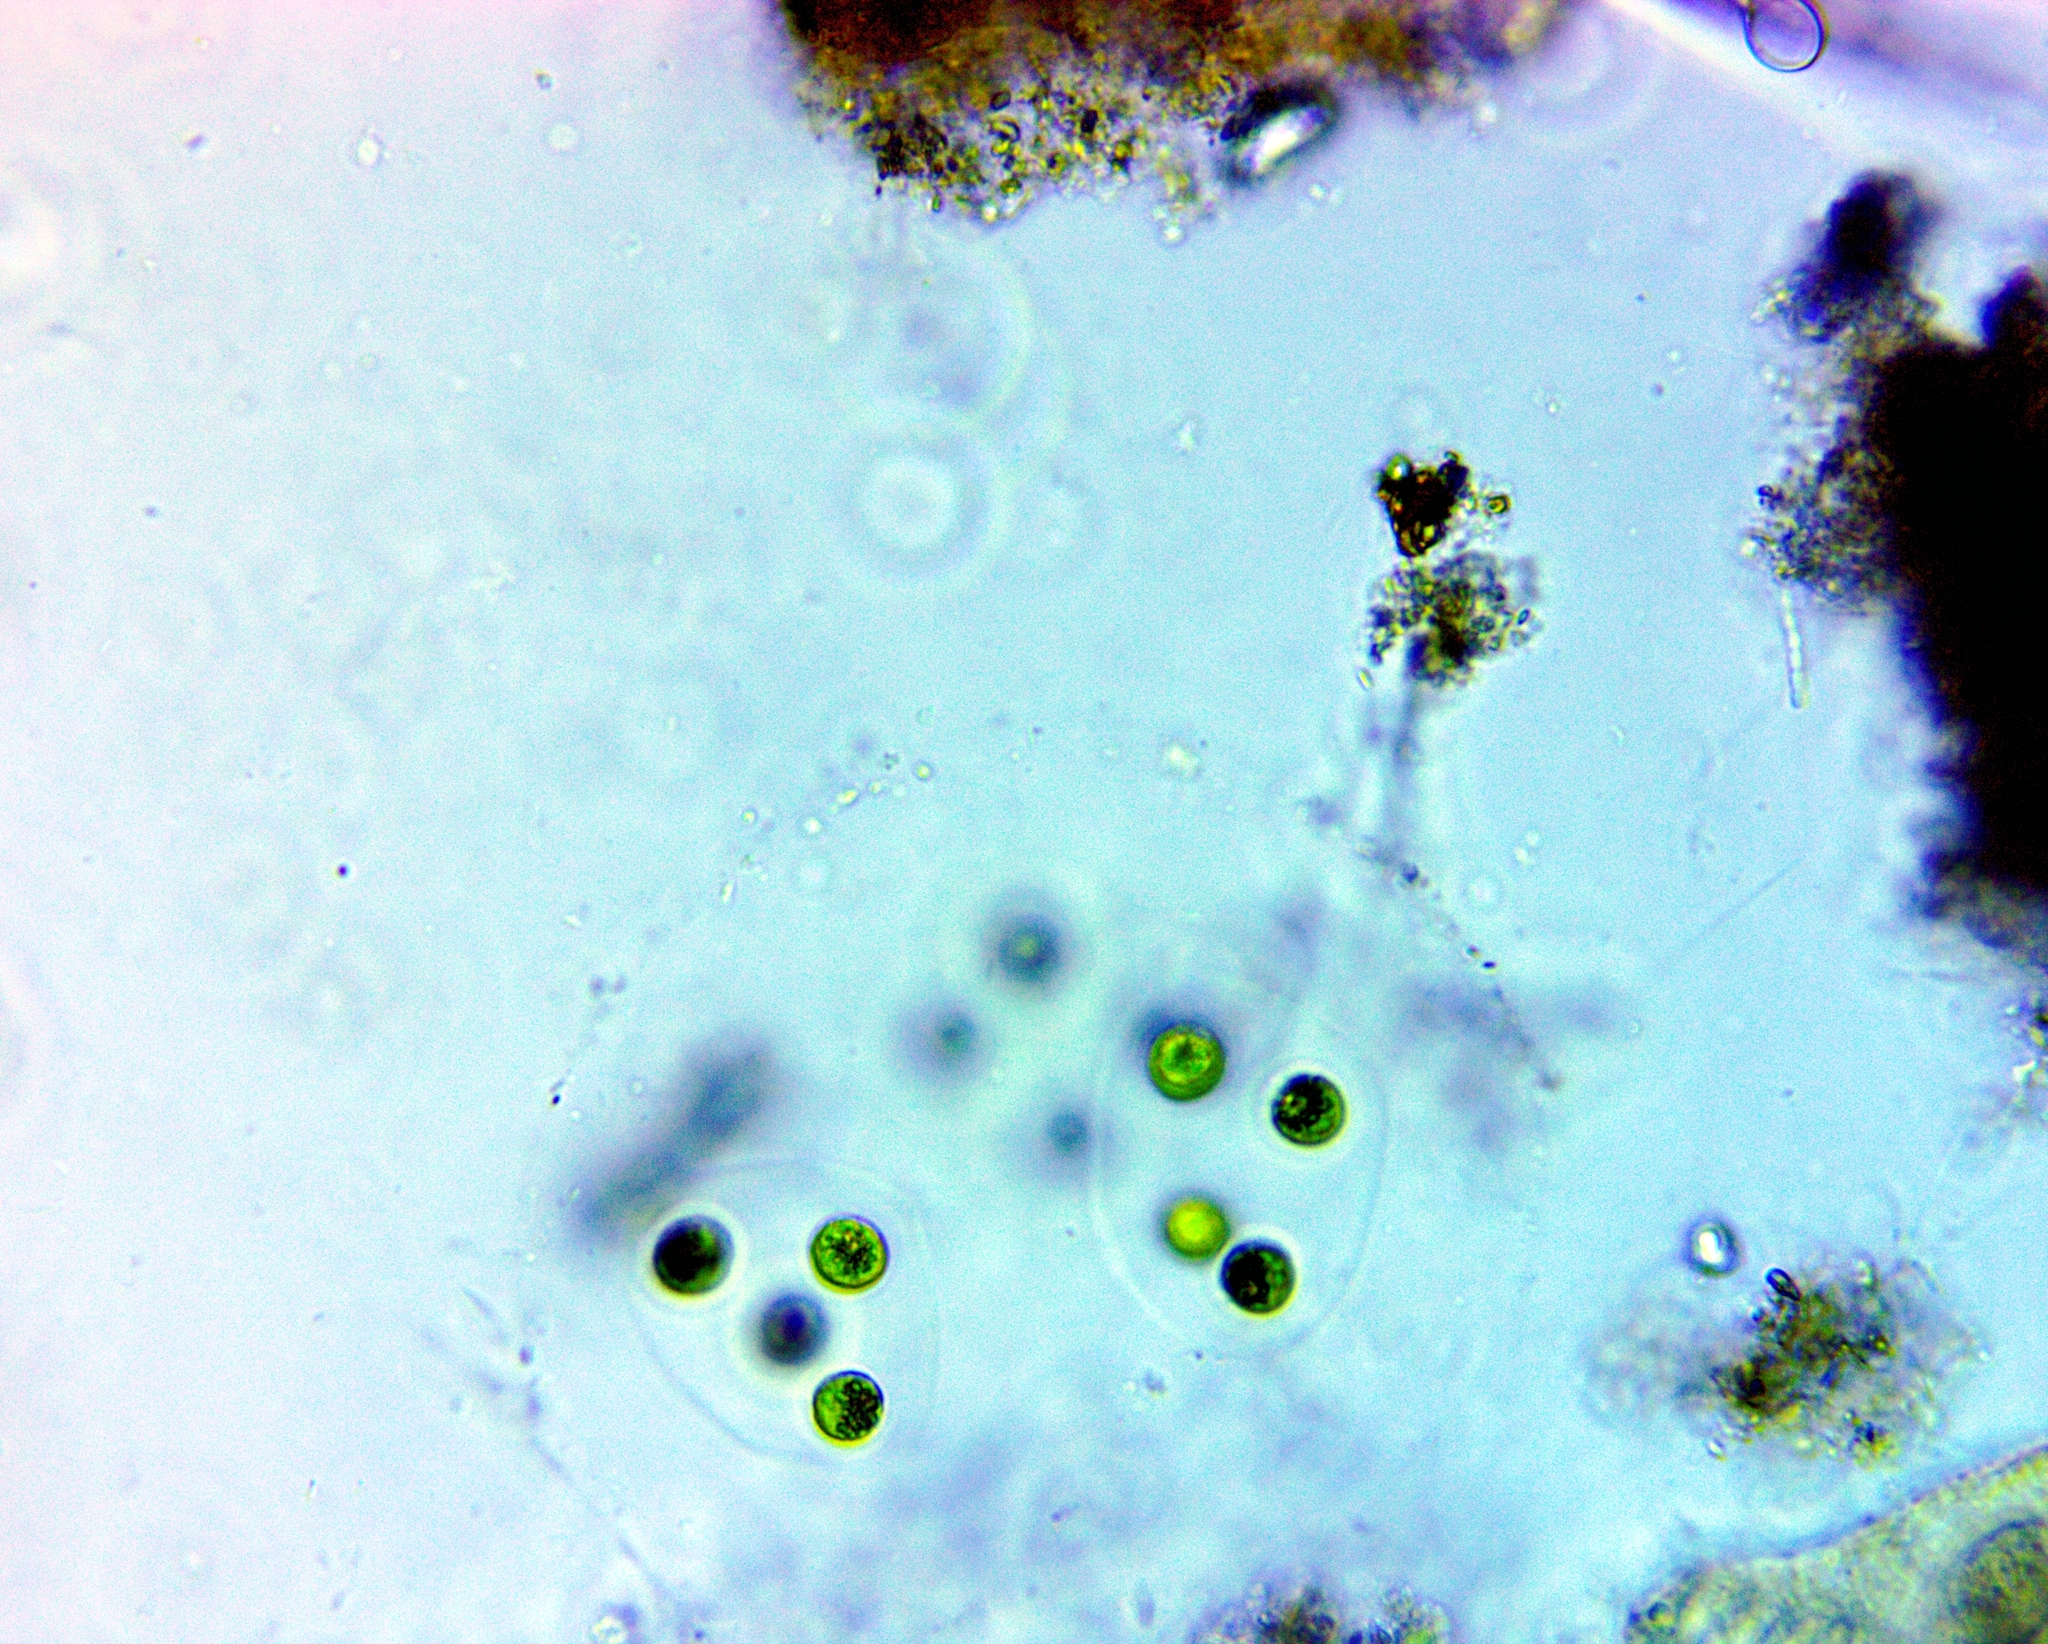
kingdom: Plantae
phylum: Chlorophyta
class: Chlorophyceae
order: Tetrasporales
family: Tetrasporaceae
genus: Paulschulzia
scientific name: Paulschulzia pseudovolvox
